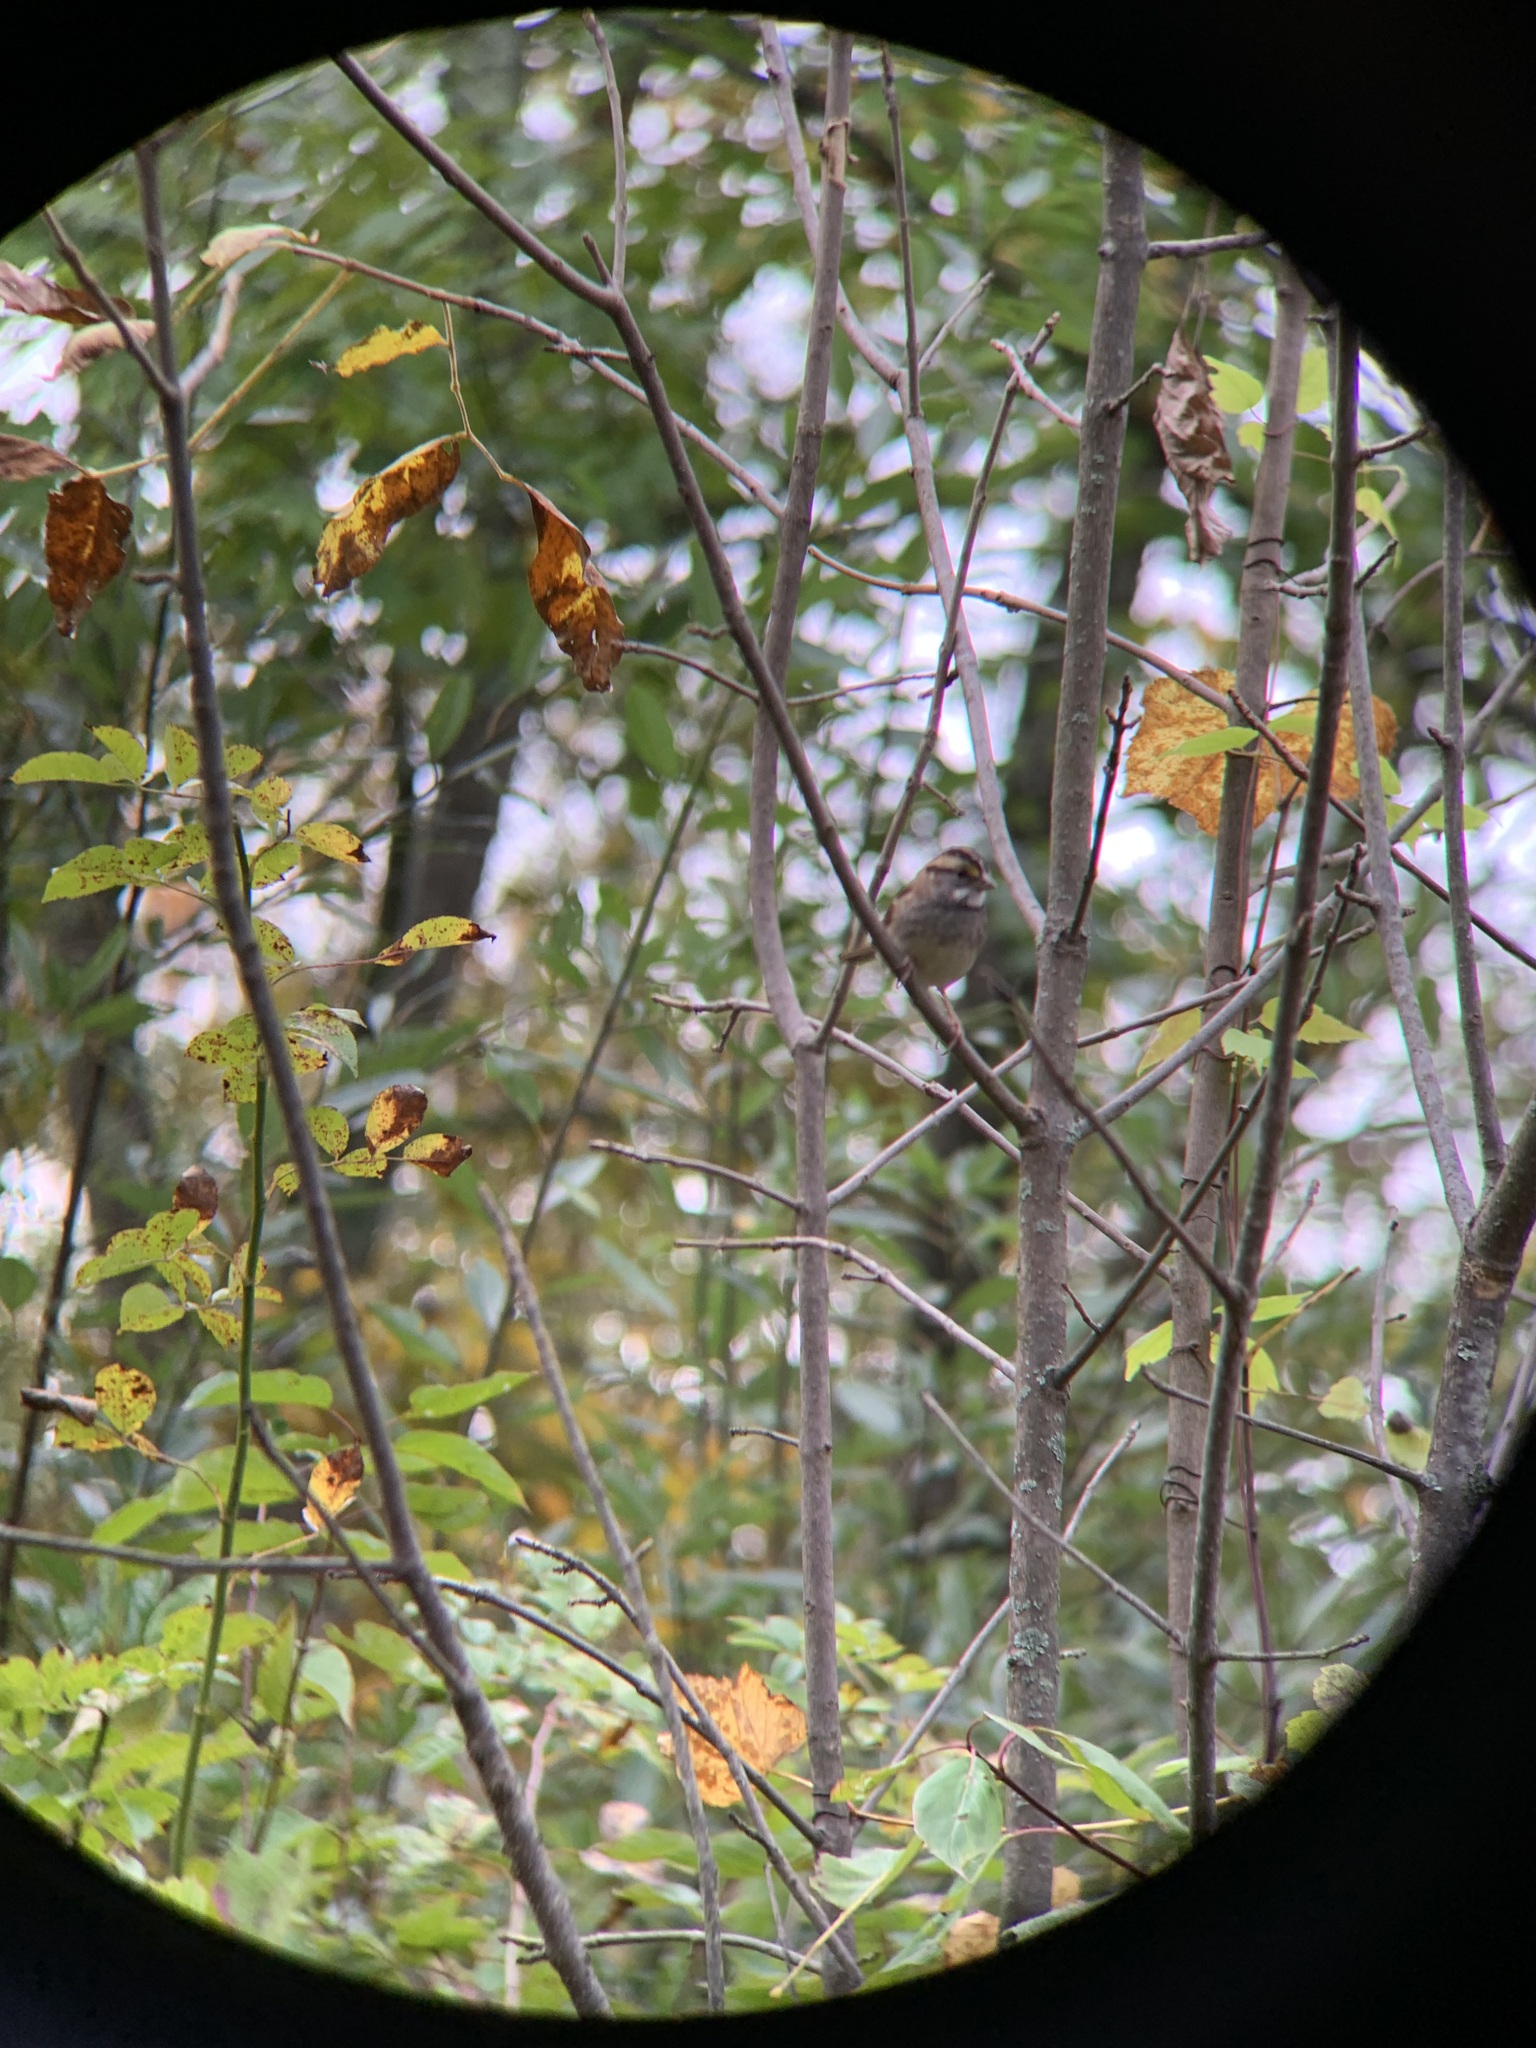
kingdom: Animalia
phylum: Chordata
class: Aves
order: Passeriformes
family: Passerellidae
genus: Zonotrichia
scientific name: Zonotrichia albicollis
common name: White-throated sparrow
